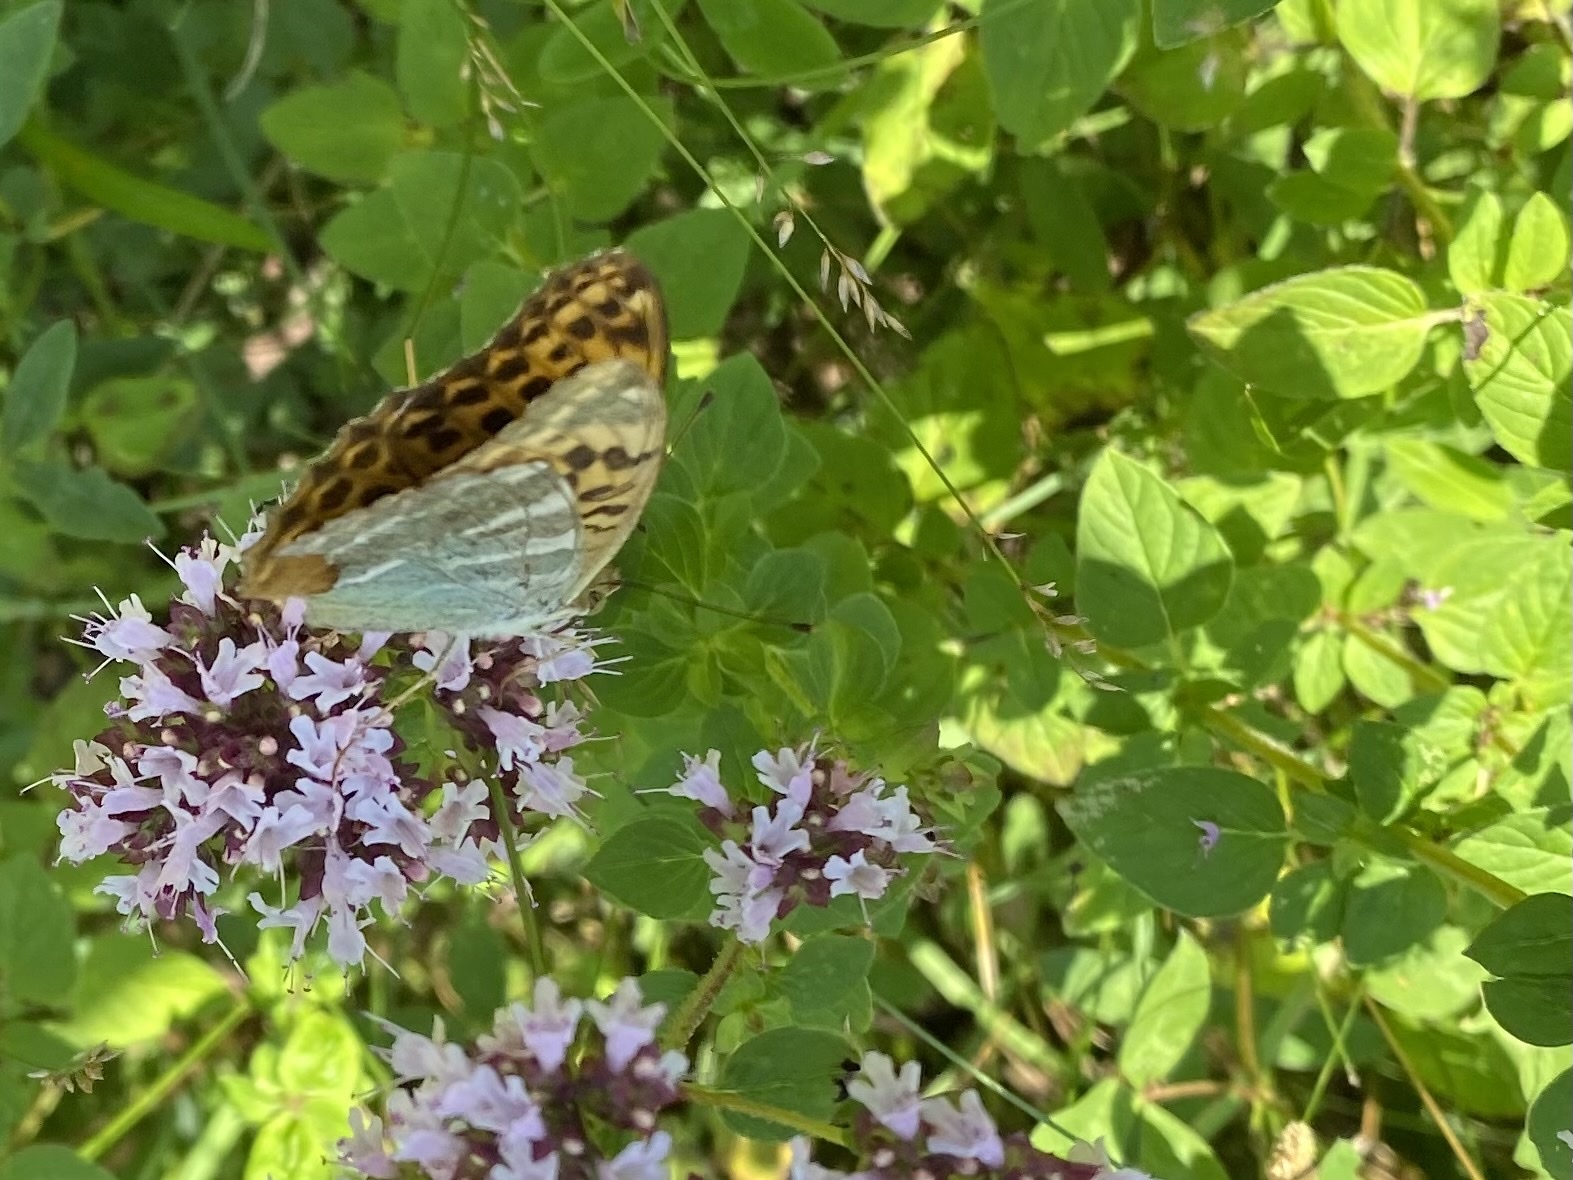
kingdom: Animalia
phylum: Arthropoda
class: Insecta
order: Lepidoptera
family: Nymphalidae
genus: Argynnis
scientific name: Argynnis paphia
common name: Silver-washed fritillary
